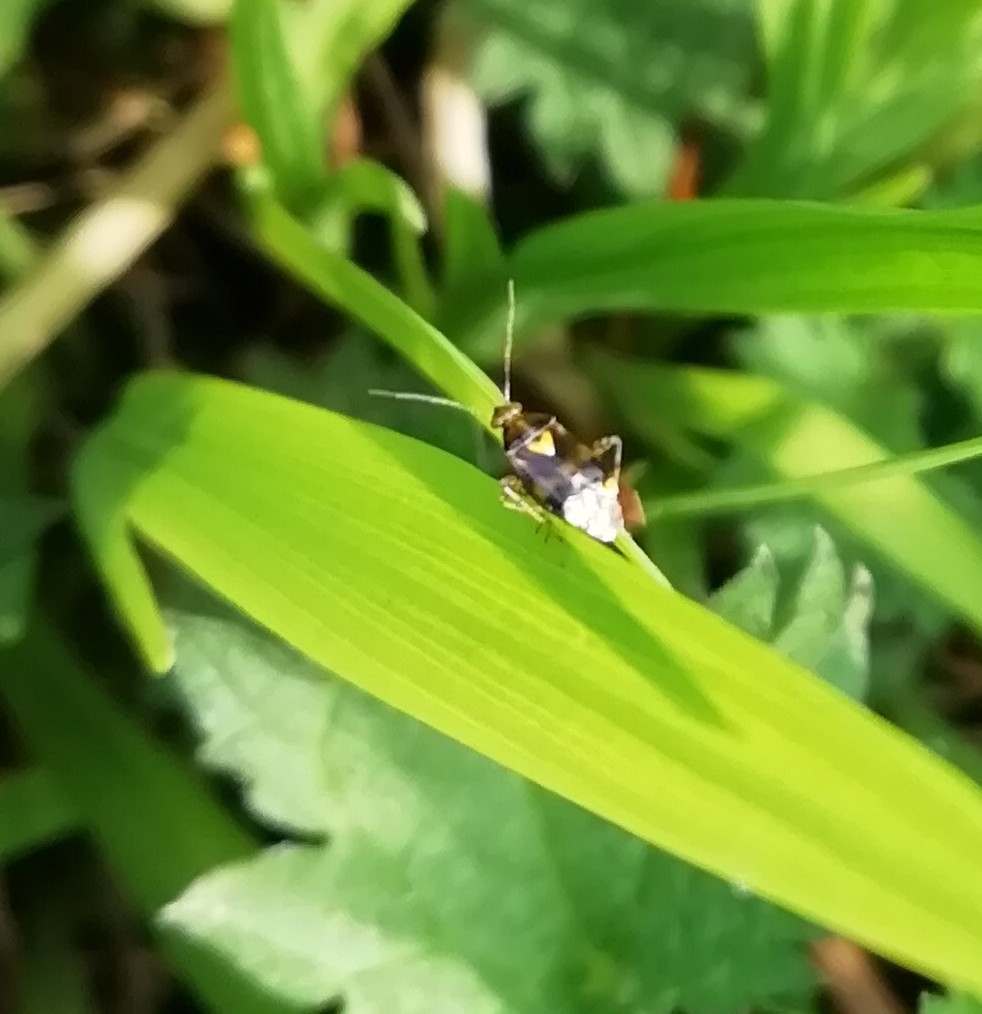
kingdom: Animalia
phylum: Arthropoda
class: Insecta
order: Hemiptera
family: Miridae
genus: Liocoris
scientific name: Liocoris tripustulatus
